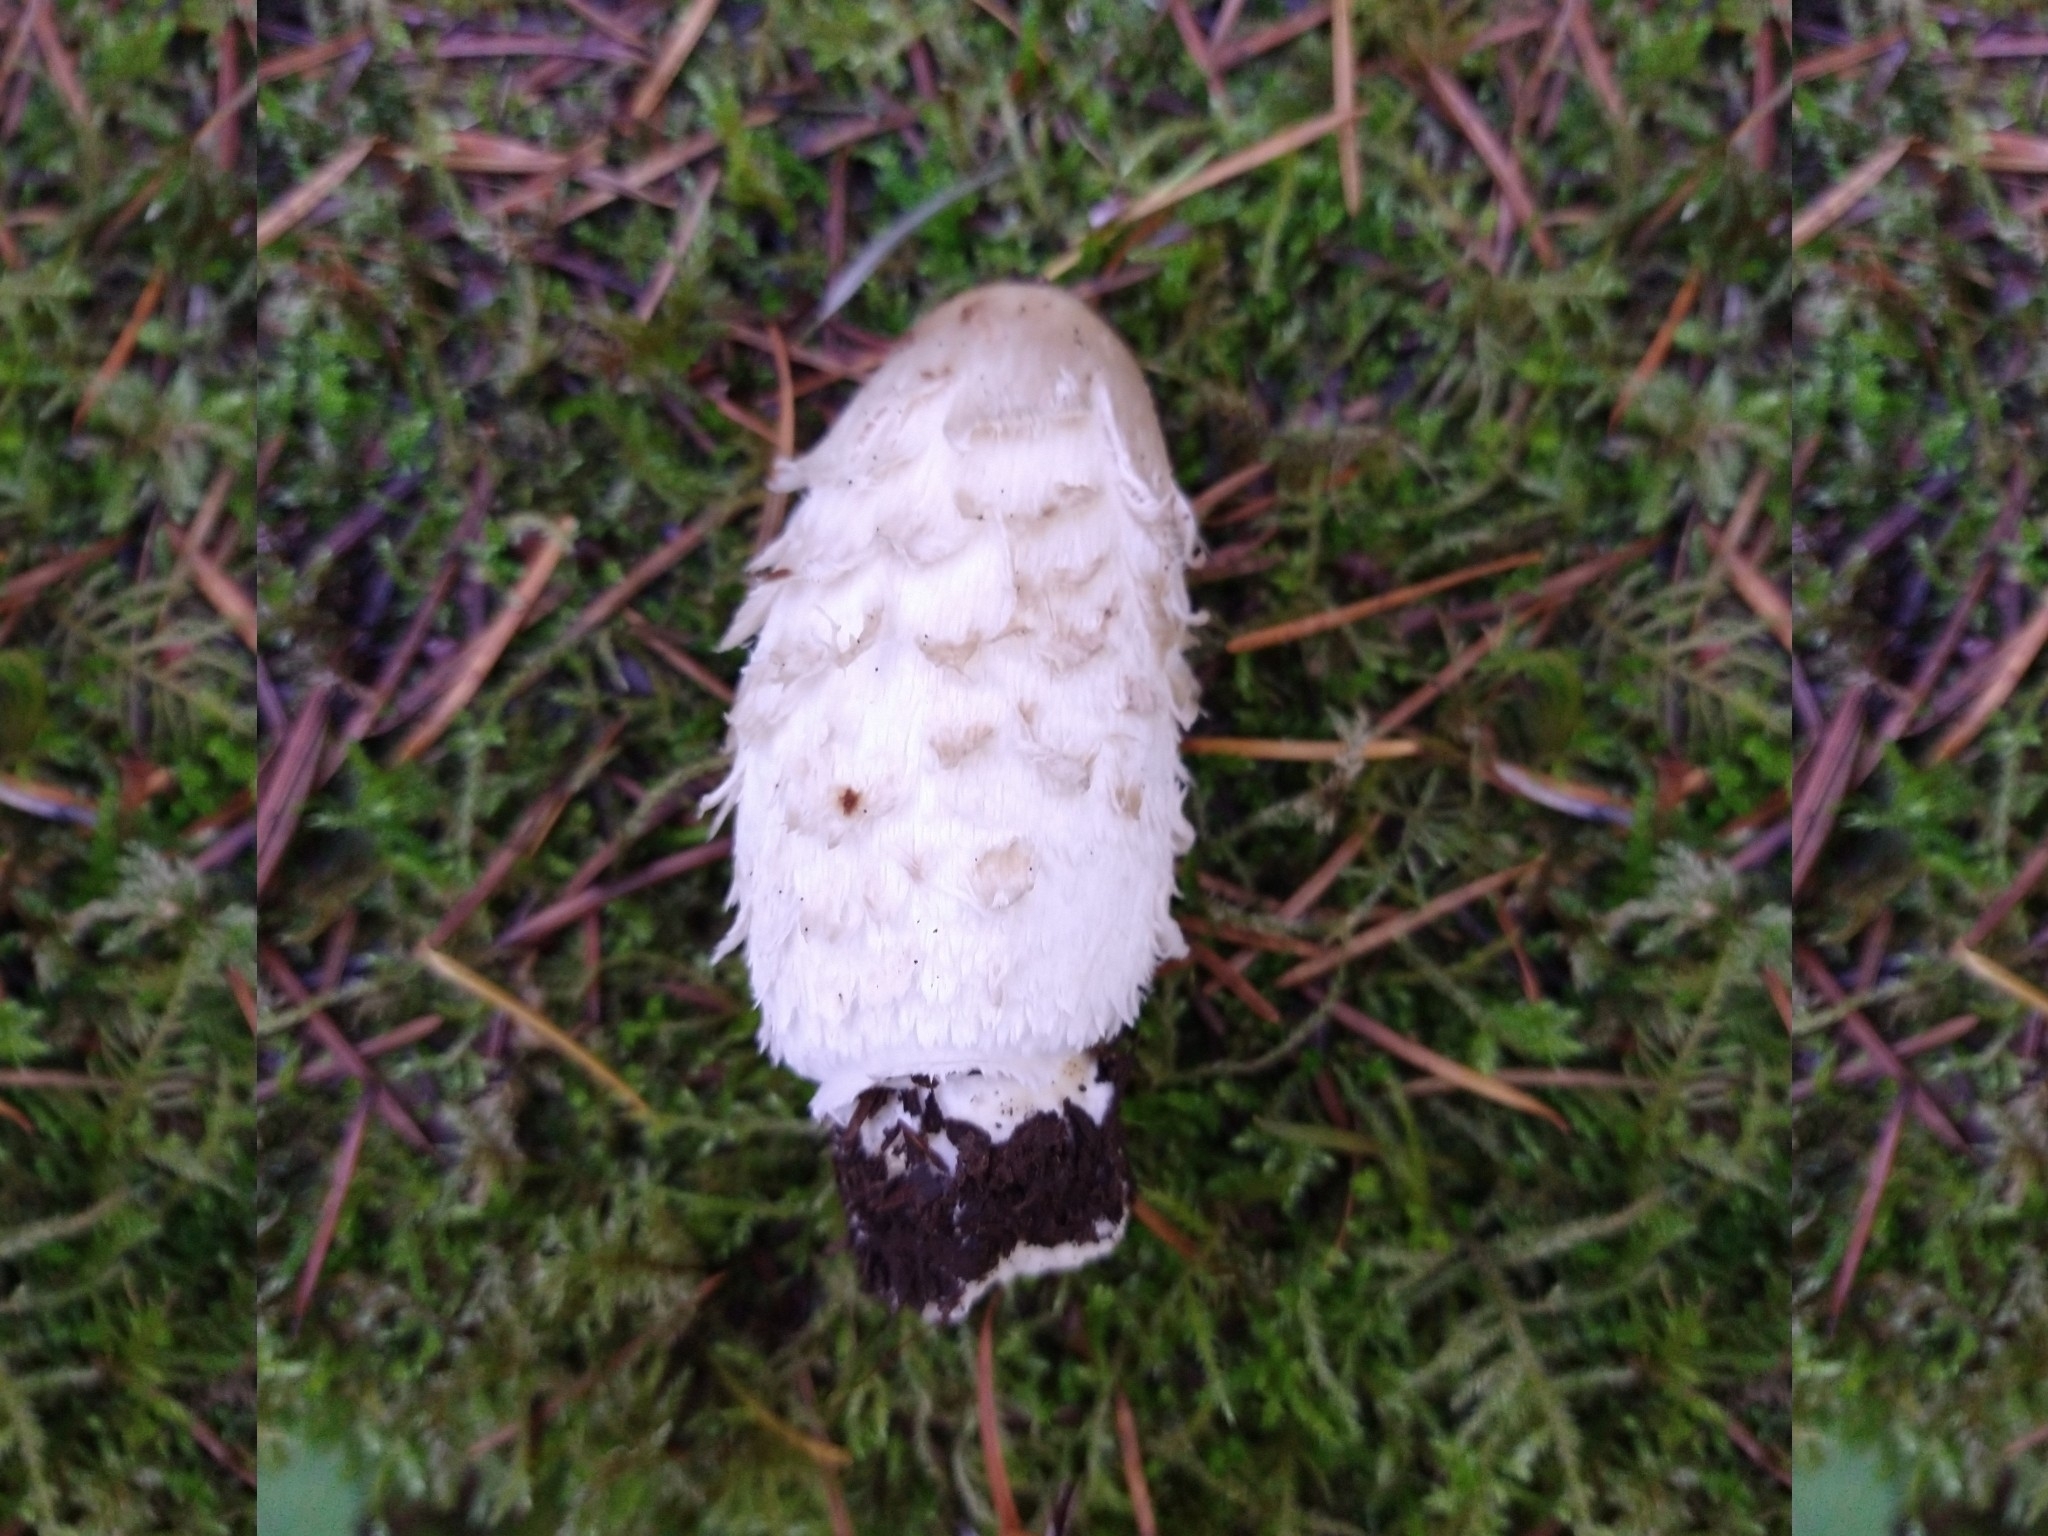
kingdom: Fungi
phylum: Basidiomycota
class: Agaricomycetes
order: Agaricales
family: Agaricaceae
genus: Coprinus
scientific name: Coprinus comatus
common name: Lawyer's wig
